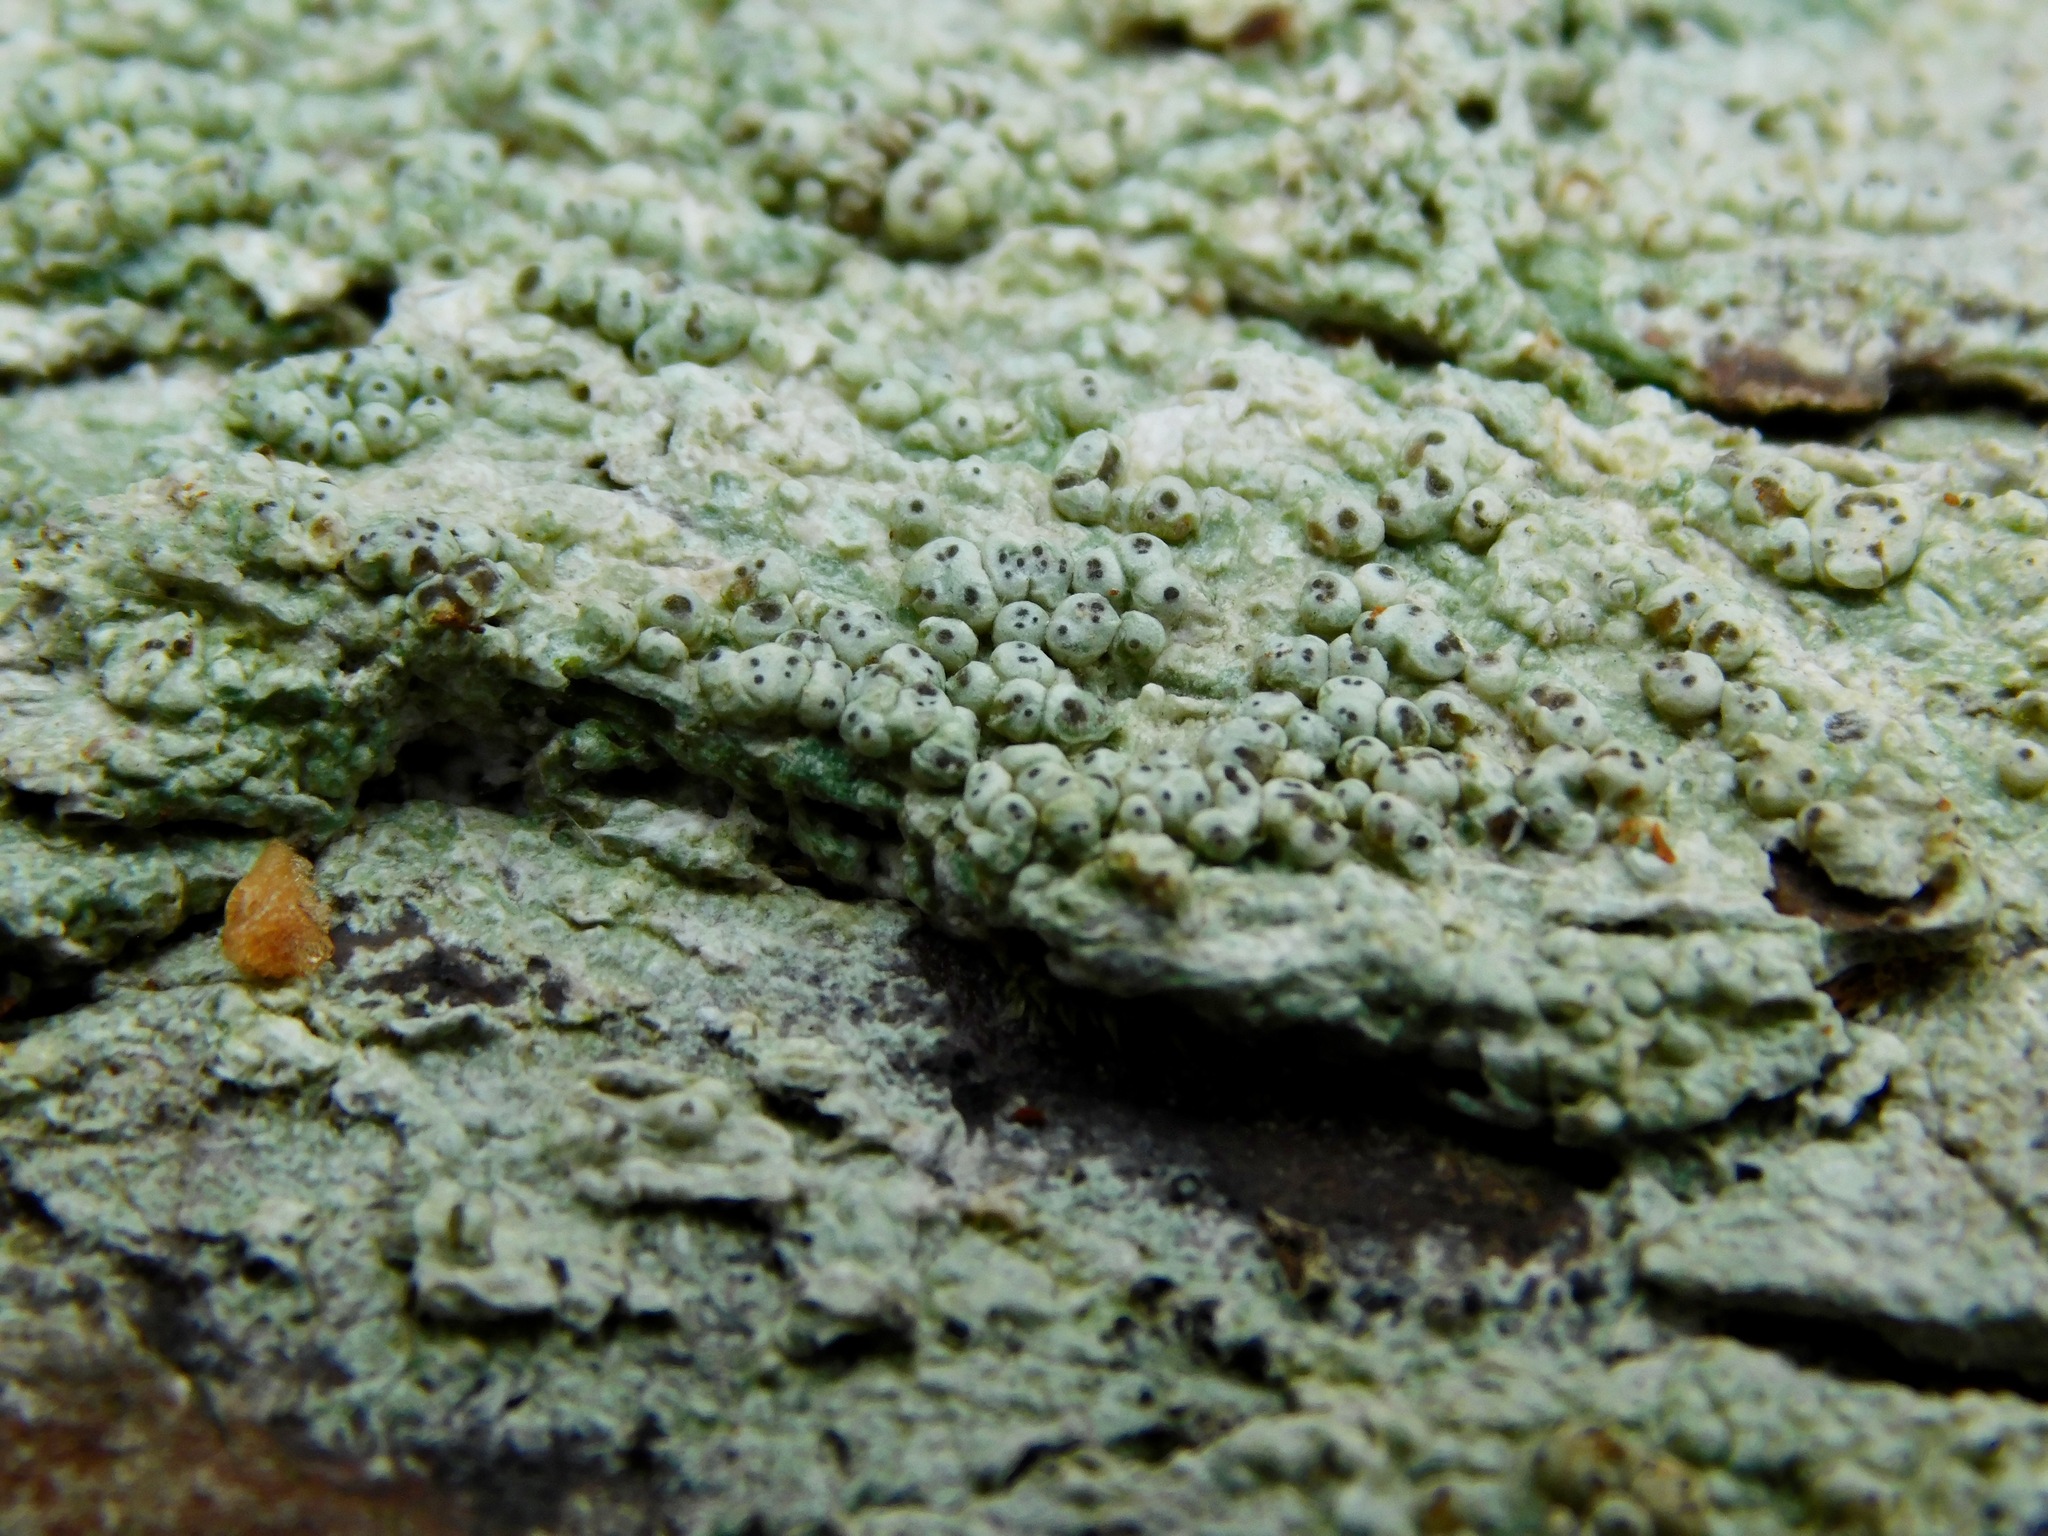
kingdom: Fungi
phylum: Ascomycota
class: Lecanoromycetes
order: Pertusariales
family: Pertusariaceae
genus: Pertusaria
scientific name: Pertusaria macounii
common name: Macoun's wart lichen
